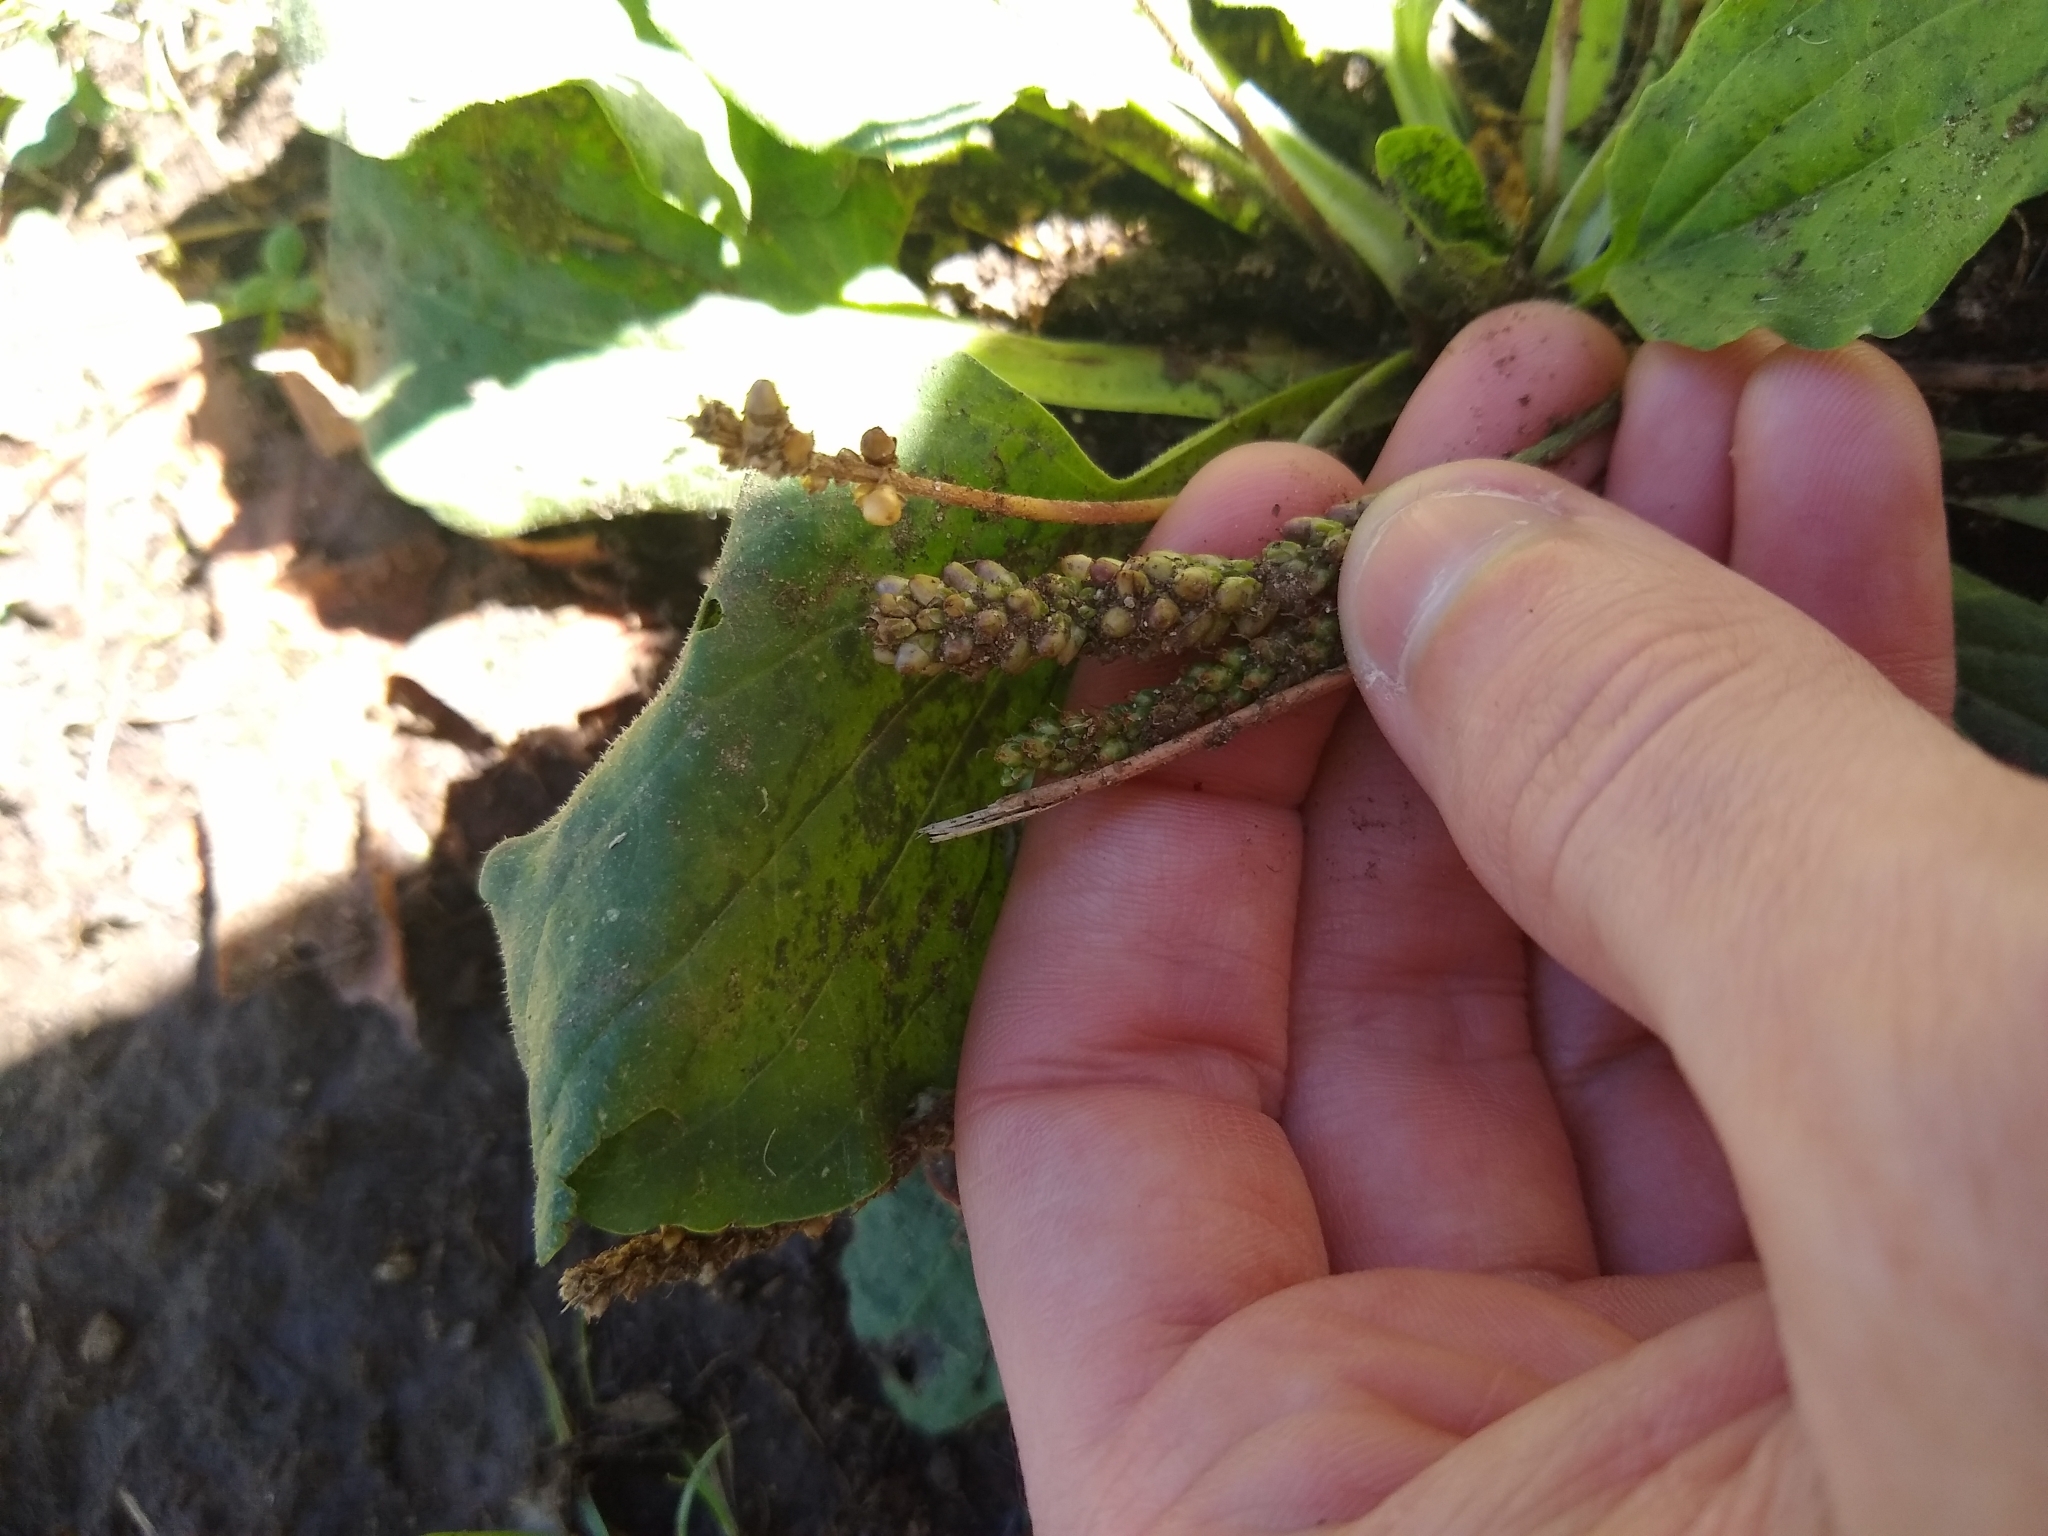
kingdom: Plantae
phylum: Tracheophyta
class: Magnoliopsida
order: Lamiales
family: Plantaginaceae
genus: Plantago
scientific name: Plantago major
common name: Common plantain
